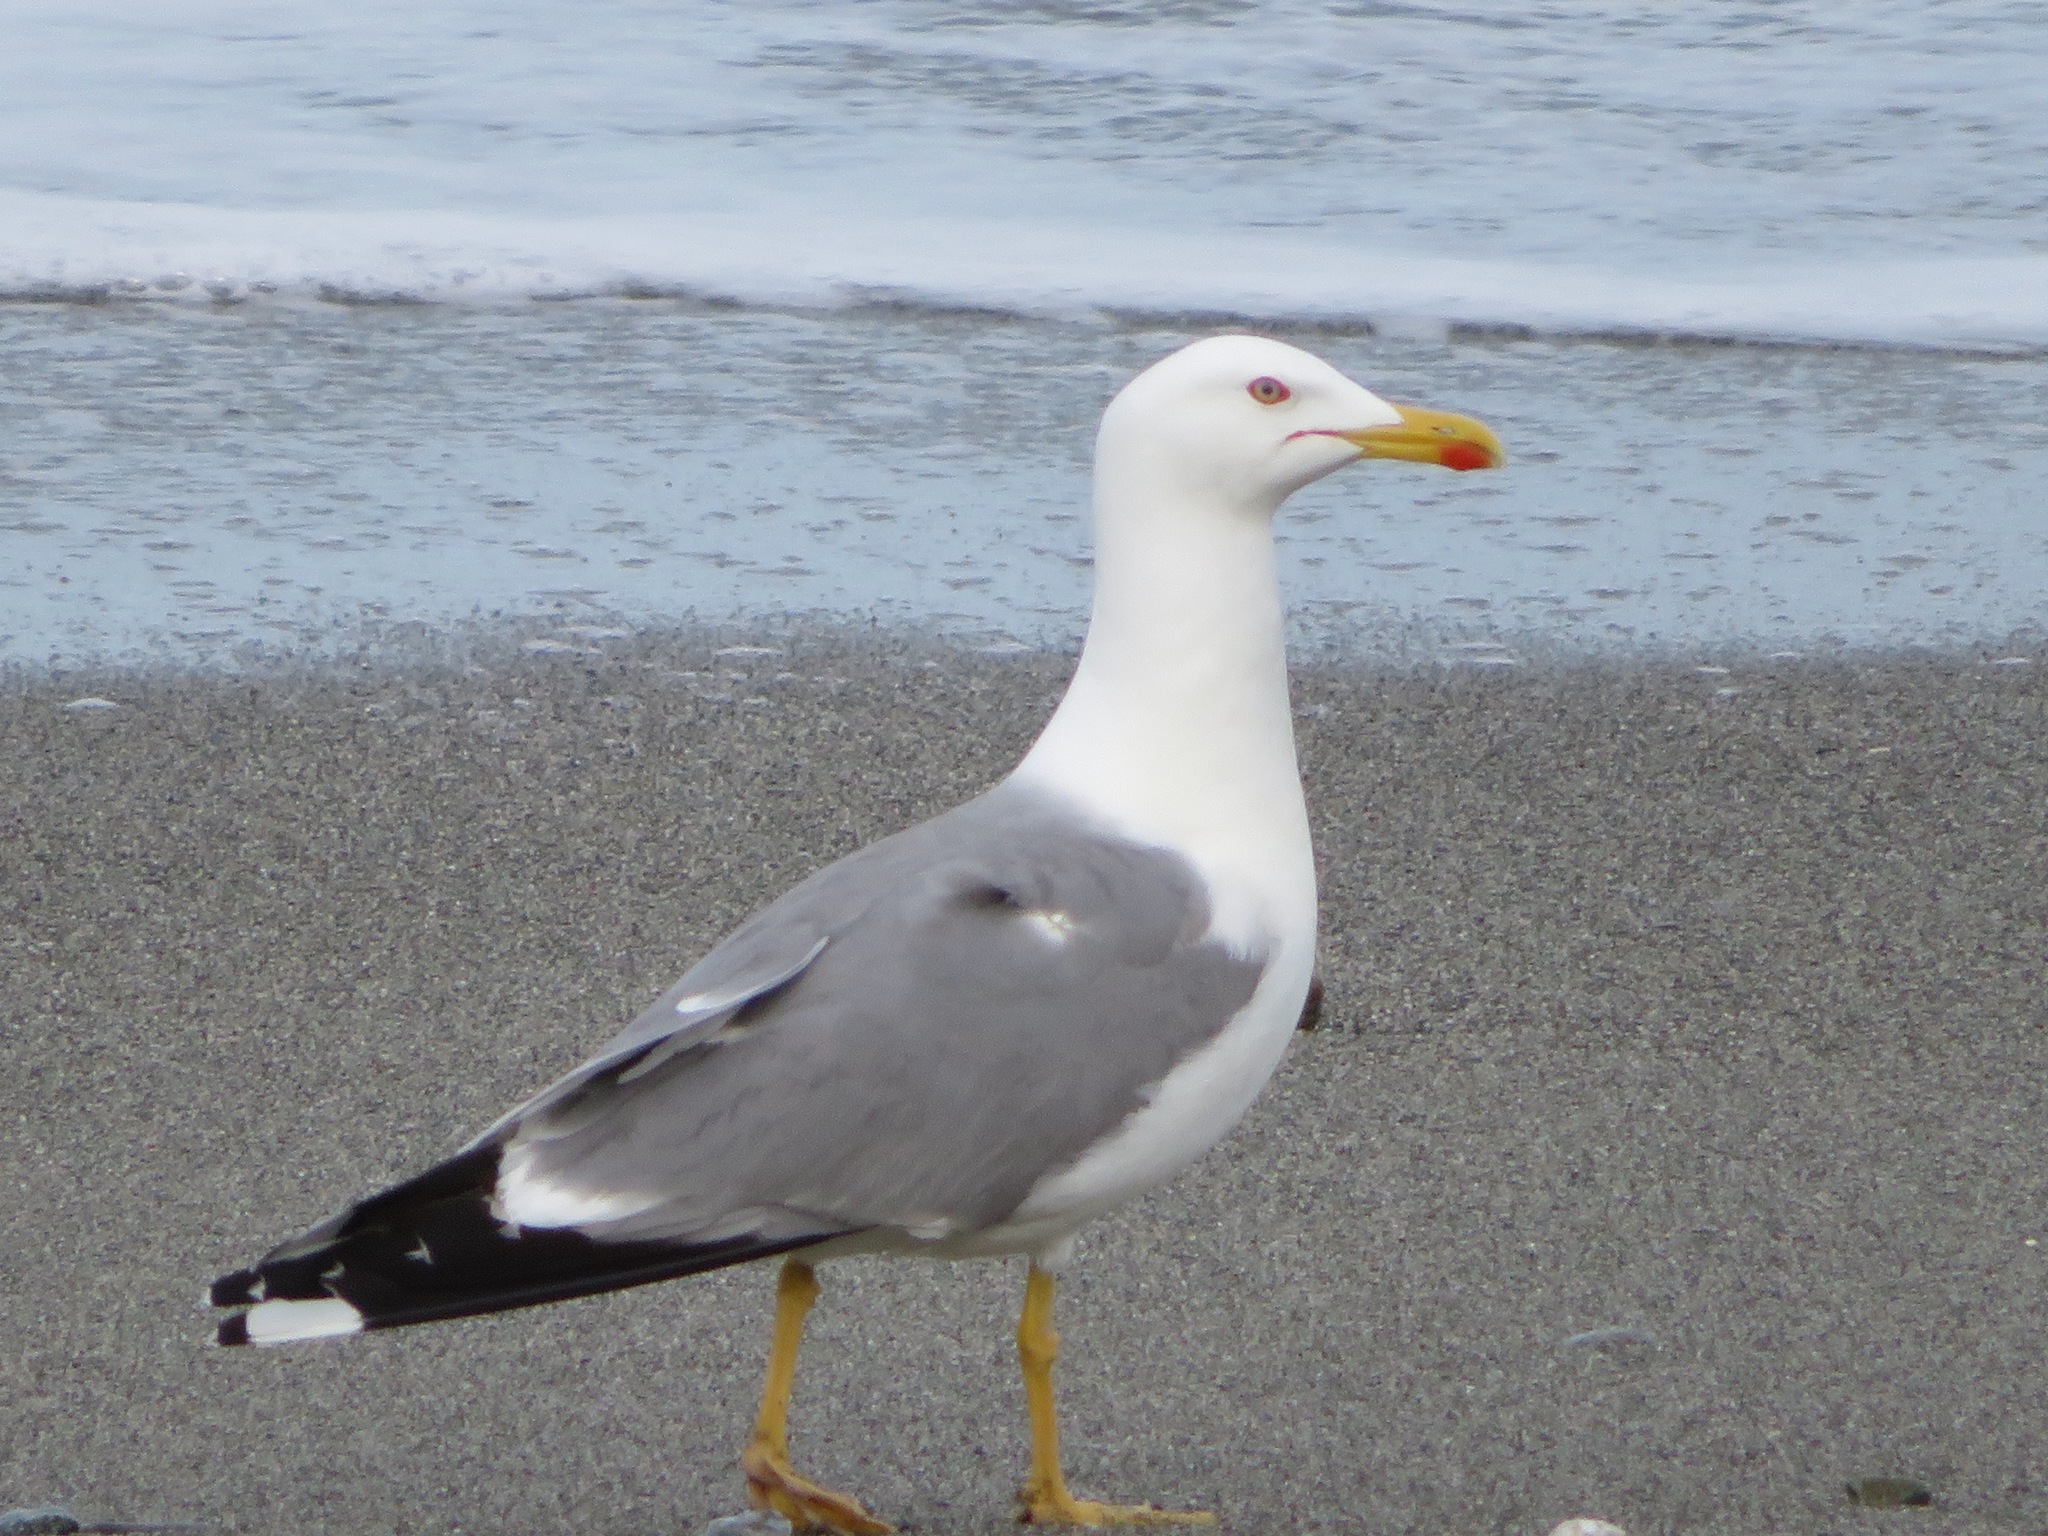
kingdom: Animalia
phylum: Chordata
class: Aves
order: Charadriiformes
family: Laridae
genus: Larus
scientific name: Larus michahellis
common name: Yellow-legged gull
